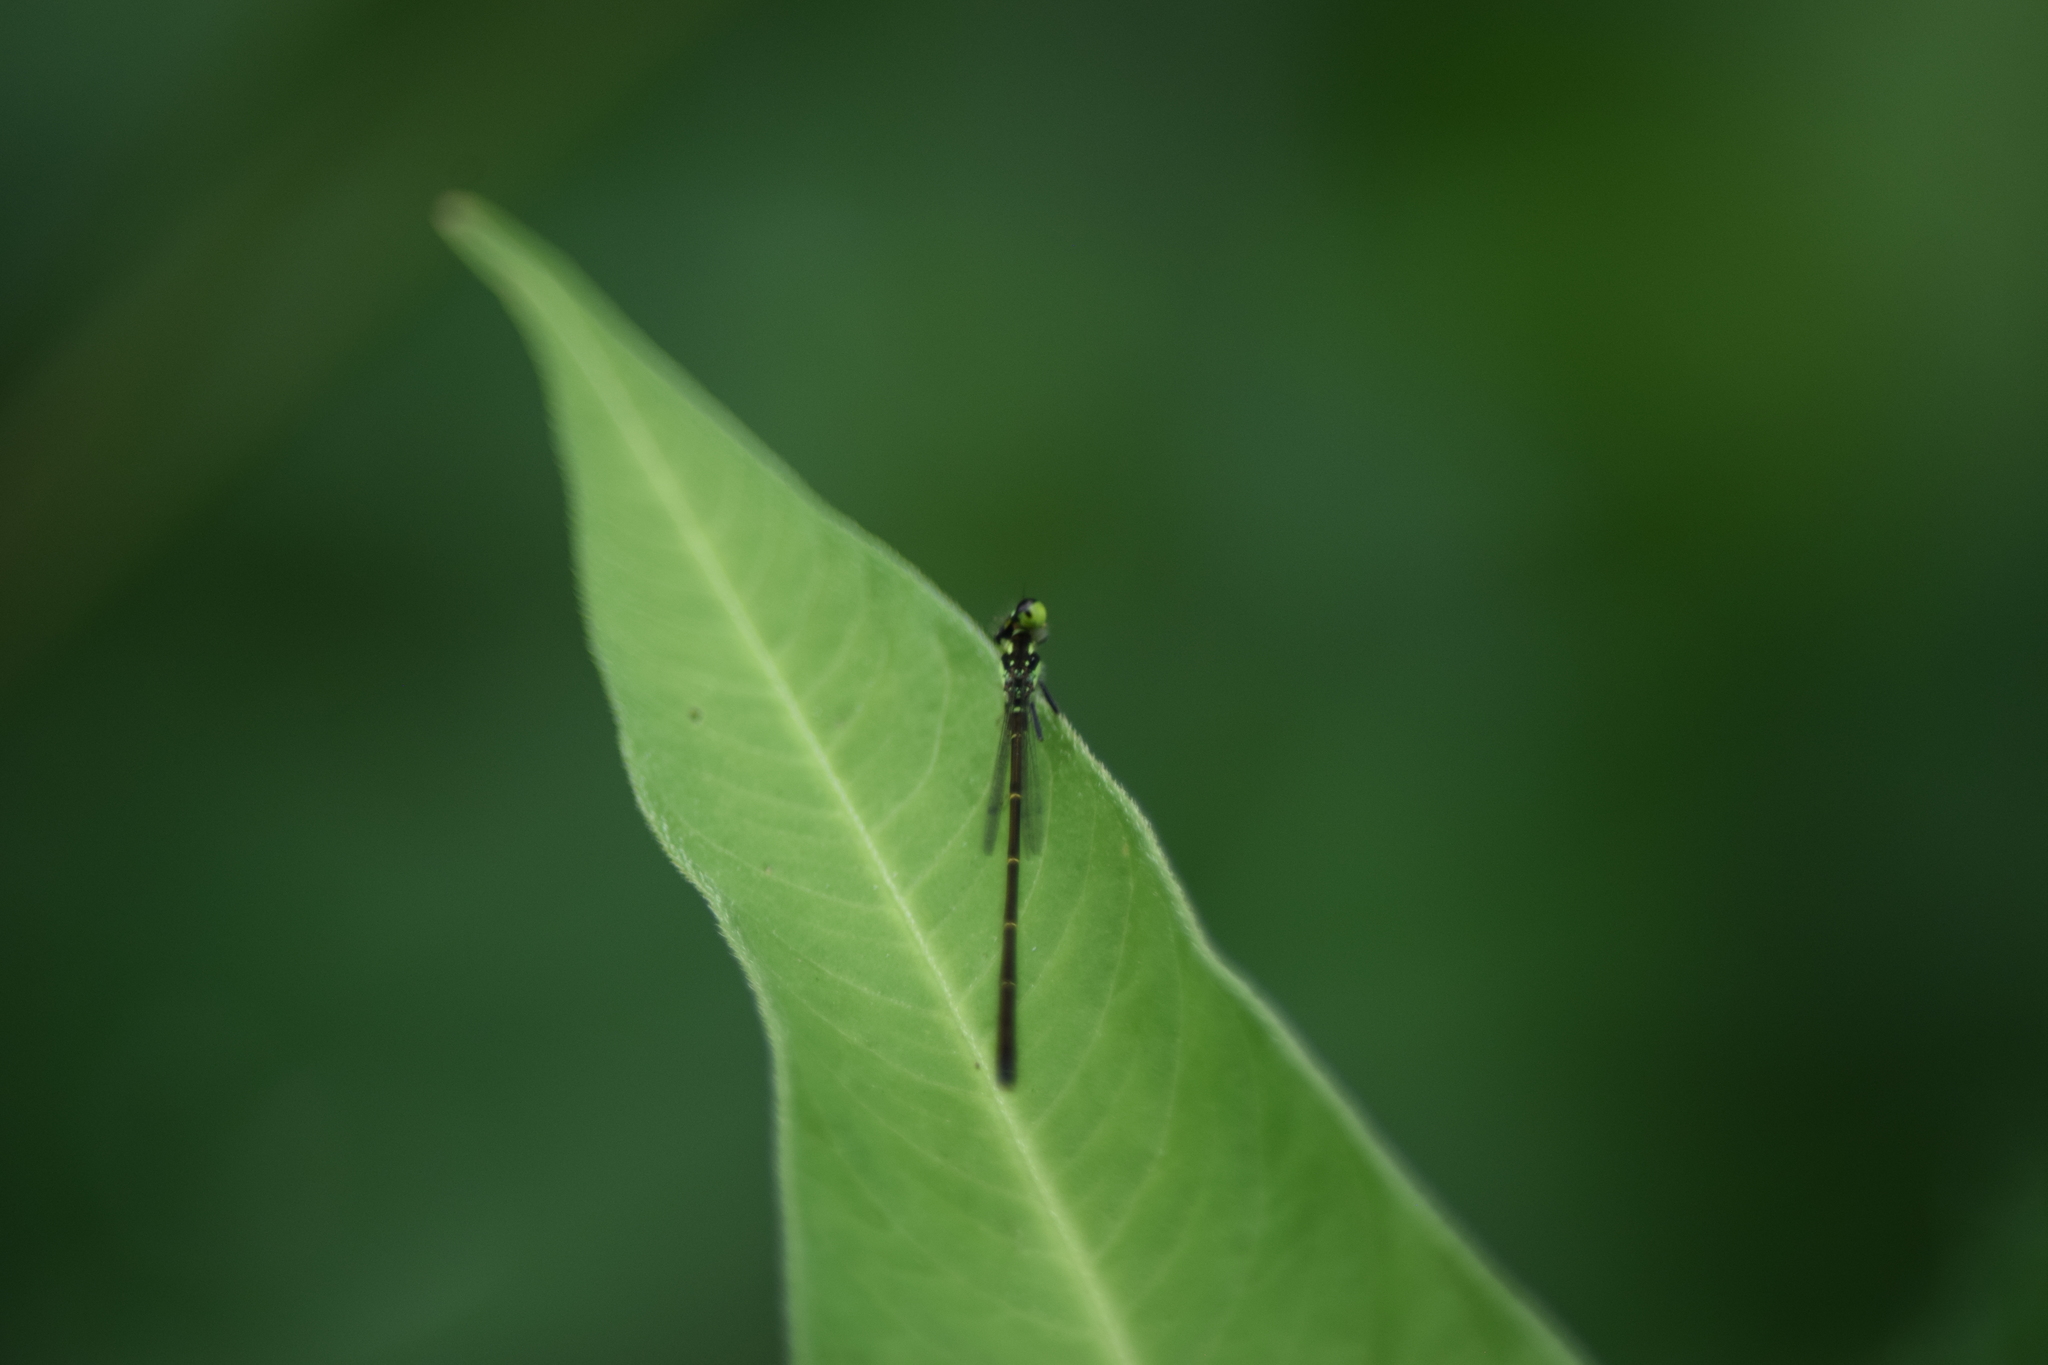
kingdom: Animalia
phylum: Arthropoda
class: Insecta
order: Odonata
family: Coenagrionidae
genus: Ischnura
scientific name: Ischnura posita
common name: Fragile forktail
